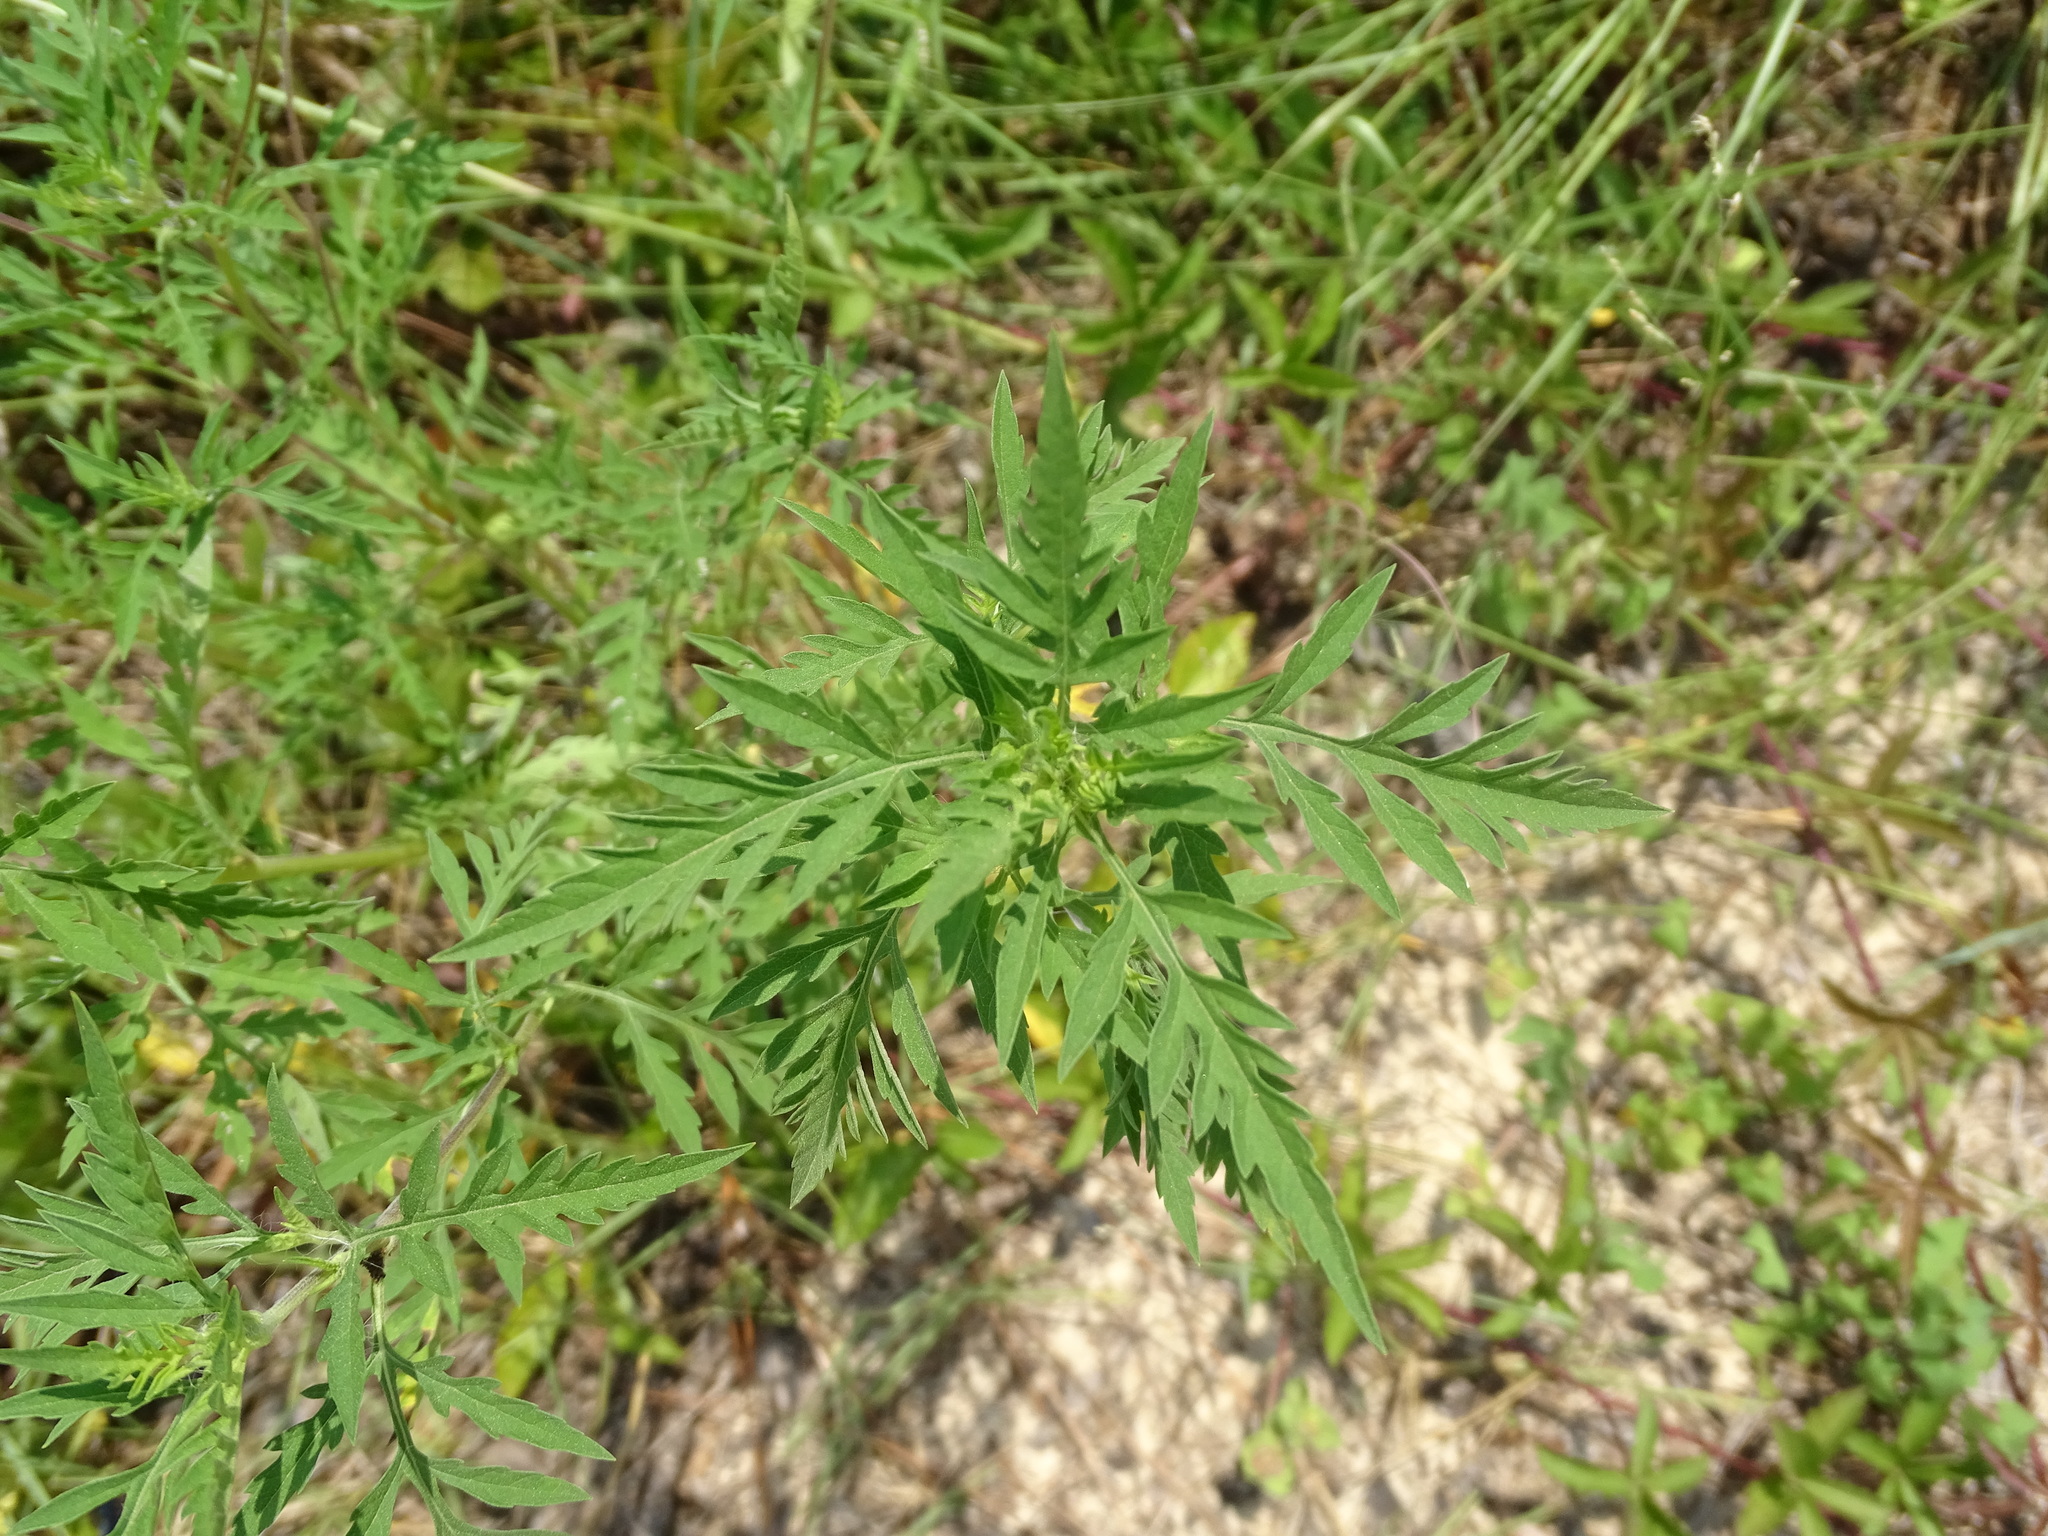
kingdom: Plantae
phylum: Tracheophyta
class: Magnoliopsida
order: Asterales
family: Asteraceae
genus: Ambrosia
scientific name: Ambrosia artemisiifolia
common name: Annual ragweed
